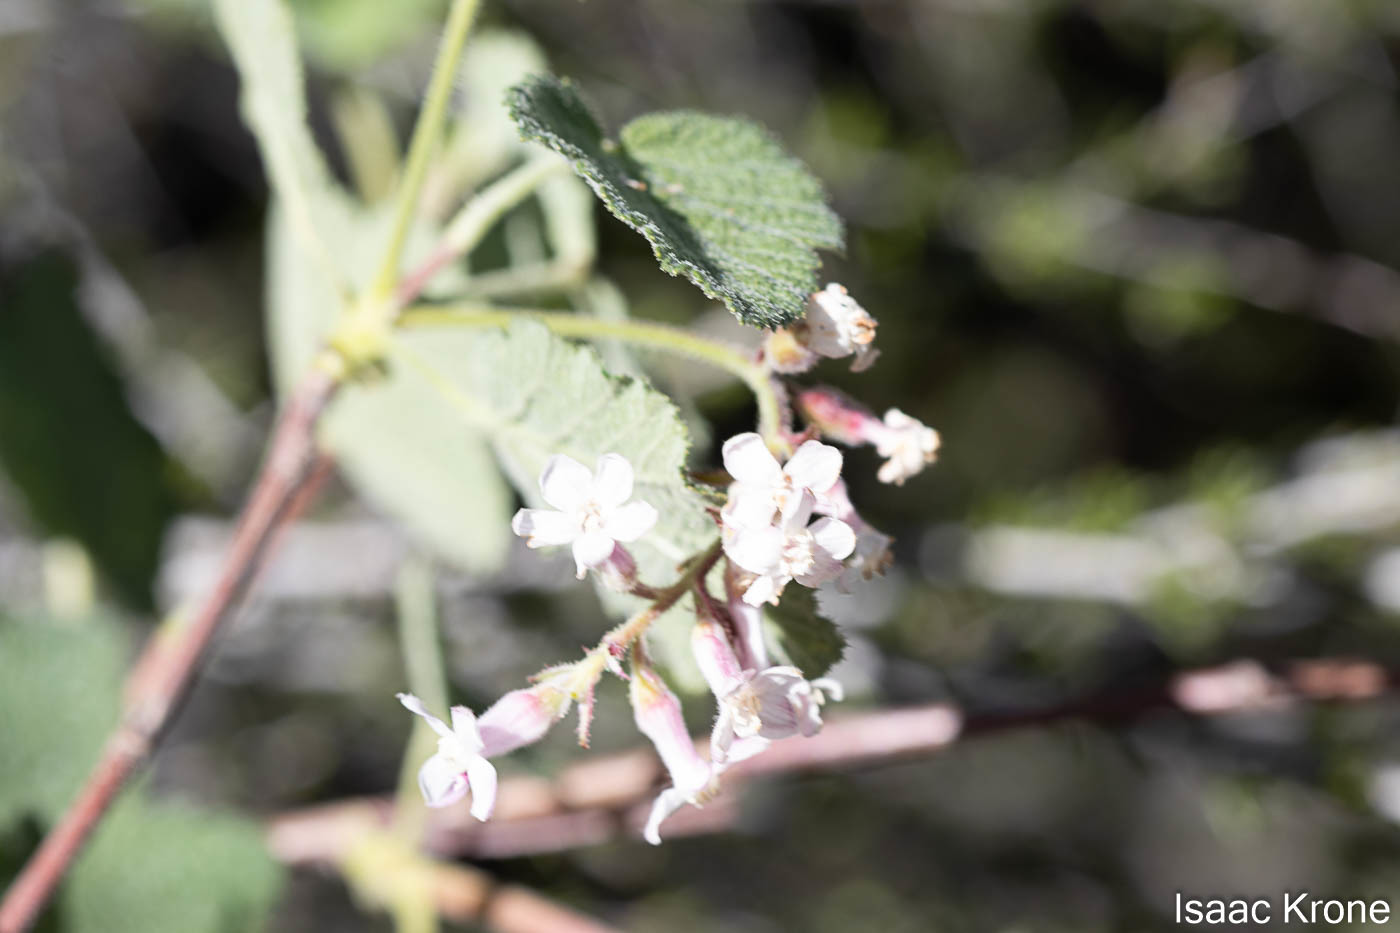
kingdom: Plantae
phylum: Tracheophyta
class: Magnoliopsida
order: Saxifragales
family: Grossulariaceae
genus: Ribes
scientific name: Ribes malvaceum
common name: Chaparral currant
